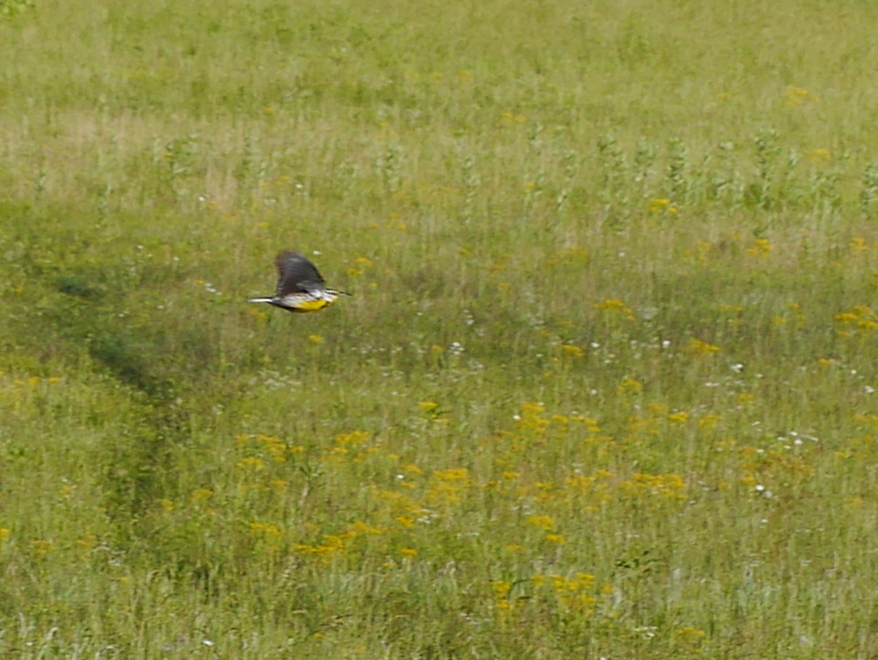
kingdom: Animalia
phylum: Chordata
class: Aves
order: Passeriformes
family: Icteridae
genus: Sturnella
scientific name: Sturnella magna
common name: Eastern meadowlark
